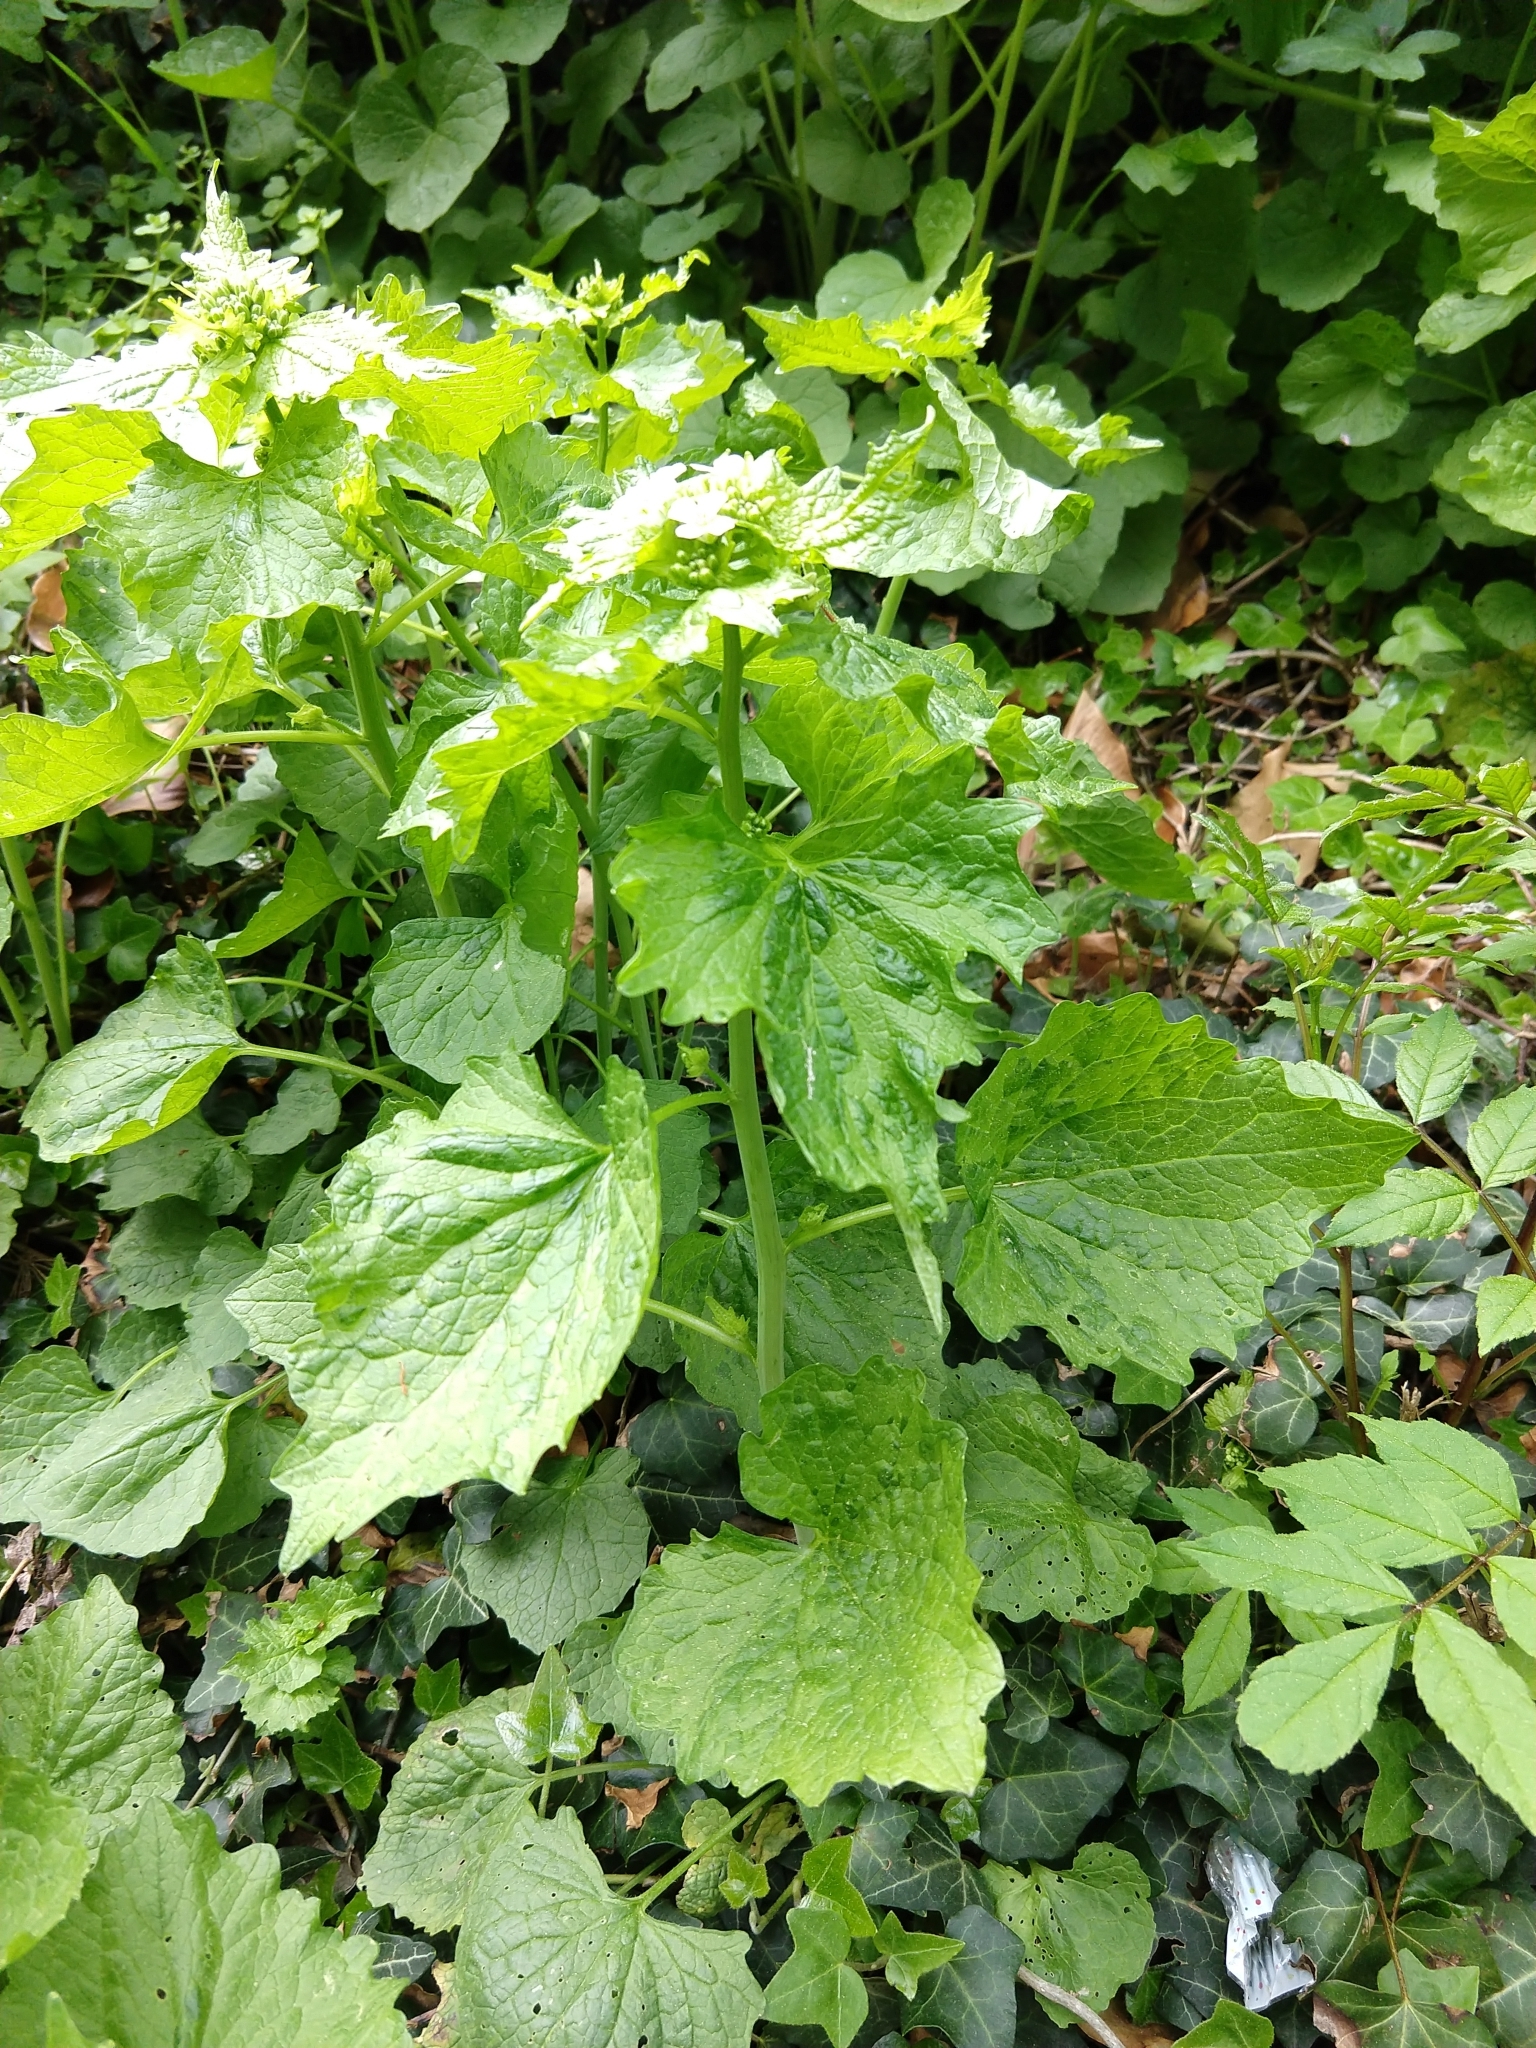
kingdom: Plantae
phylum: Tracheophyta
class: Magnoliopsida
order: Brassicales
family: Brassicaceae
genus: Alliaria
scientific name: Alliaria petiolata
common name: Garlic mustard
